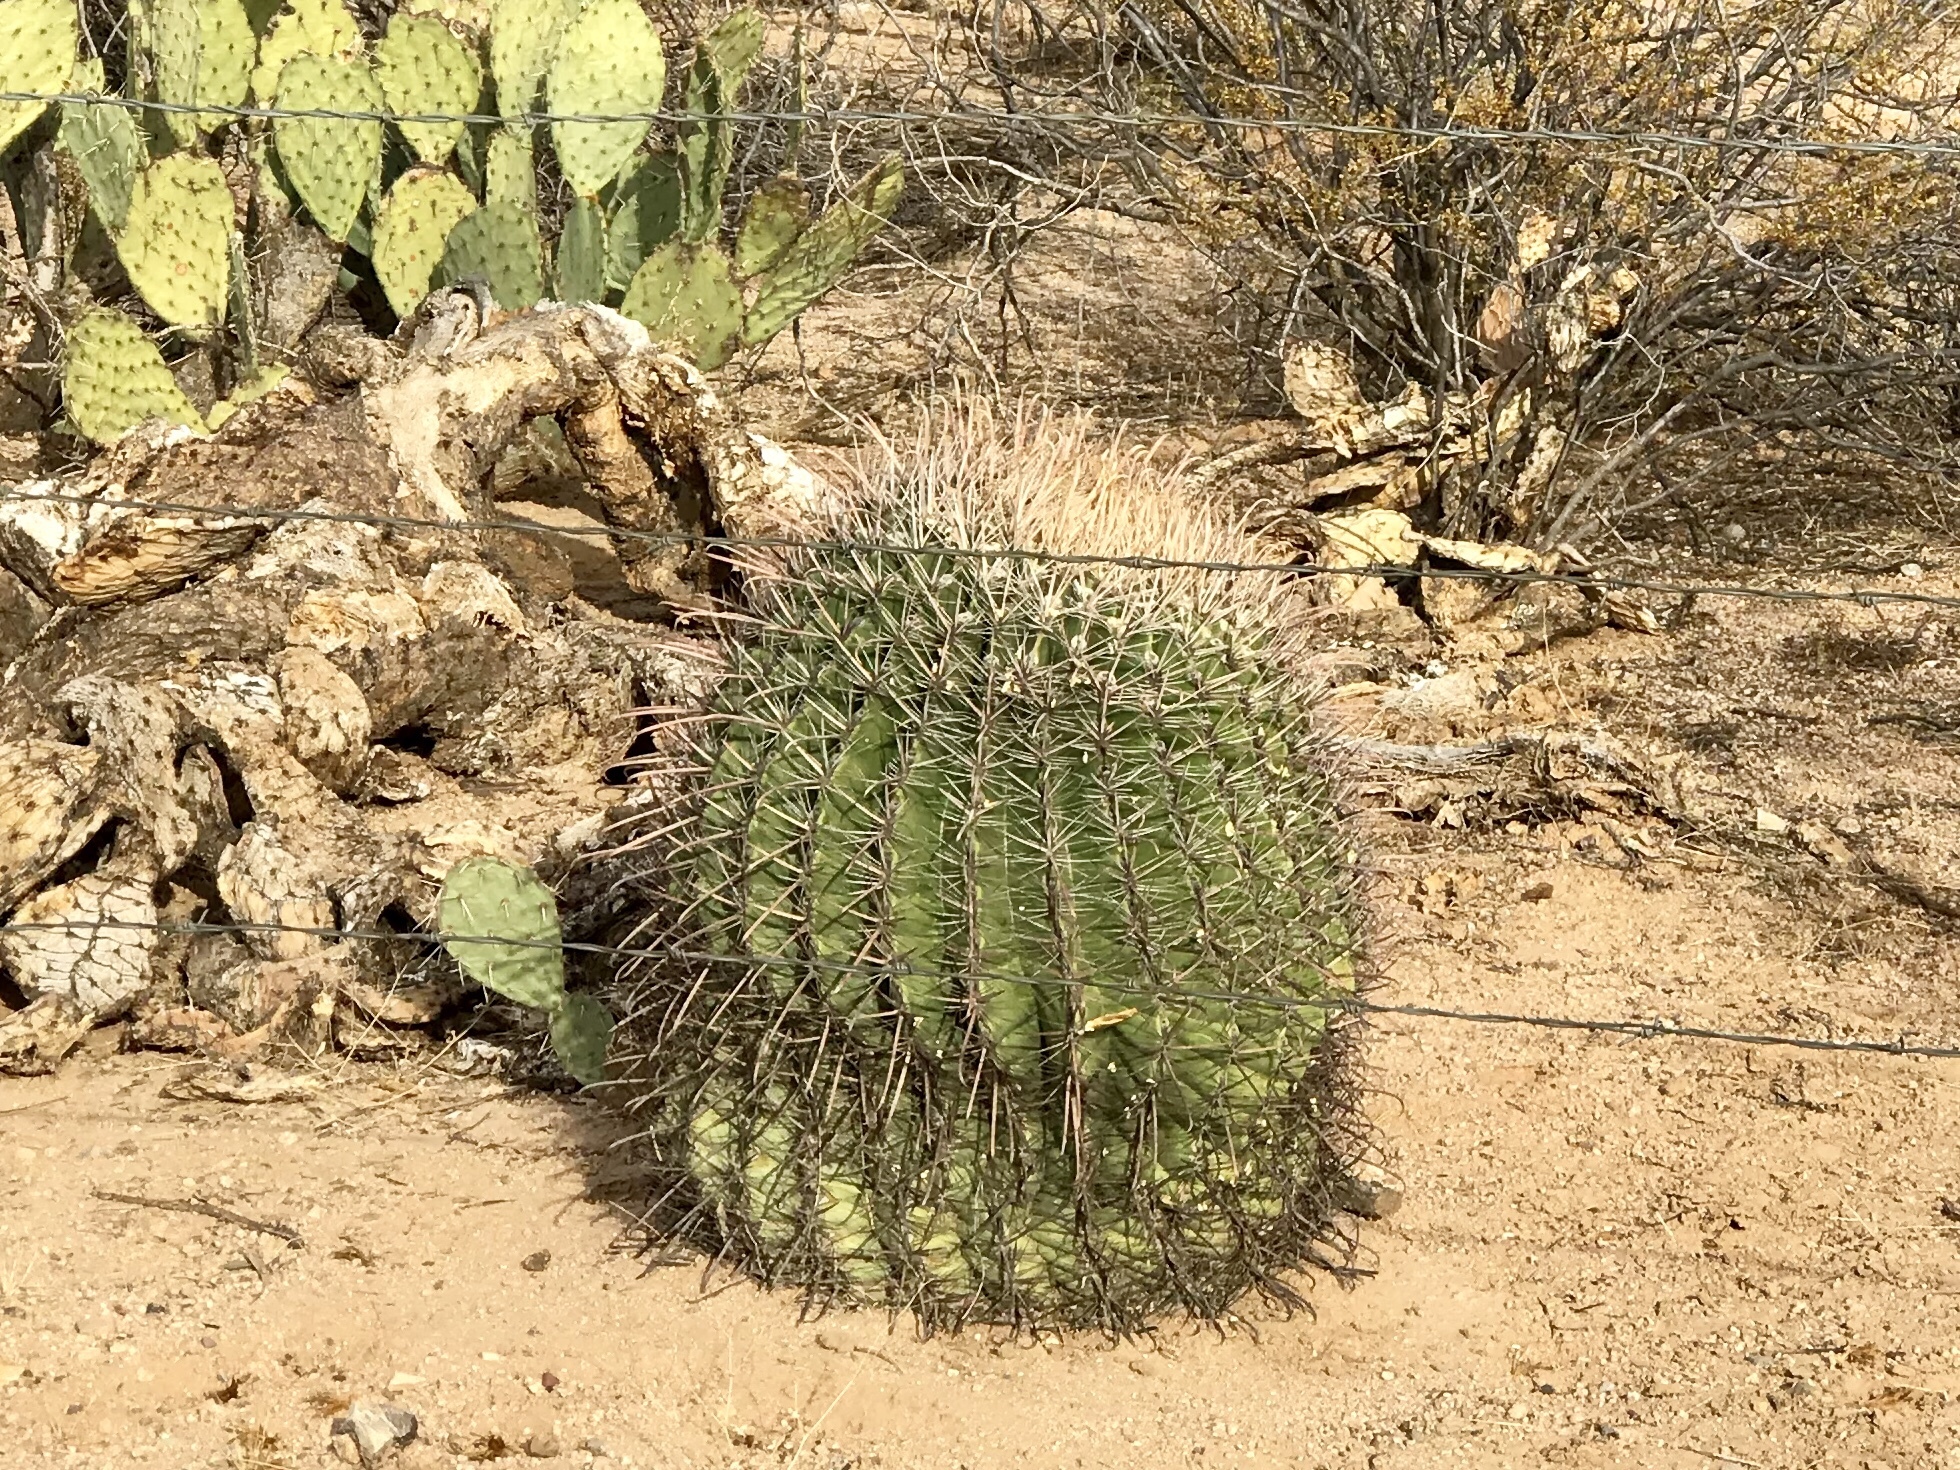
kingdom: Plantae
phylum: Tracheophyta
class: Magnoliopsida
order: Caryophyllales
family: Cactaceae
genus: Ferocactus
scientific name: Ferocactus wislizeni
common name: Candy barrel cactus
